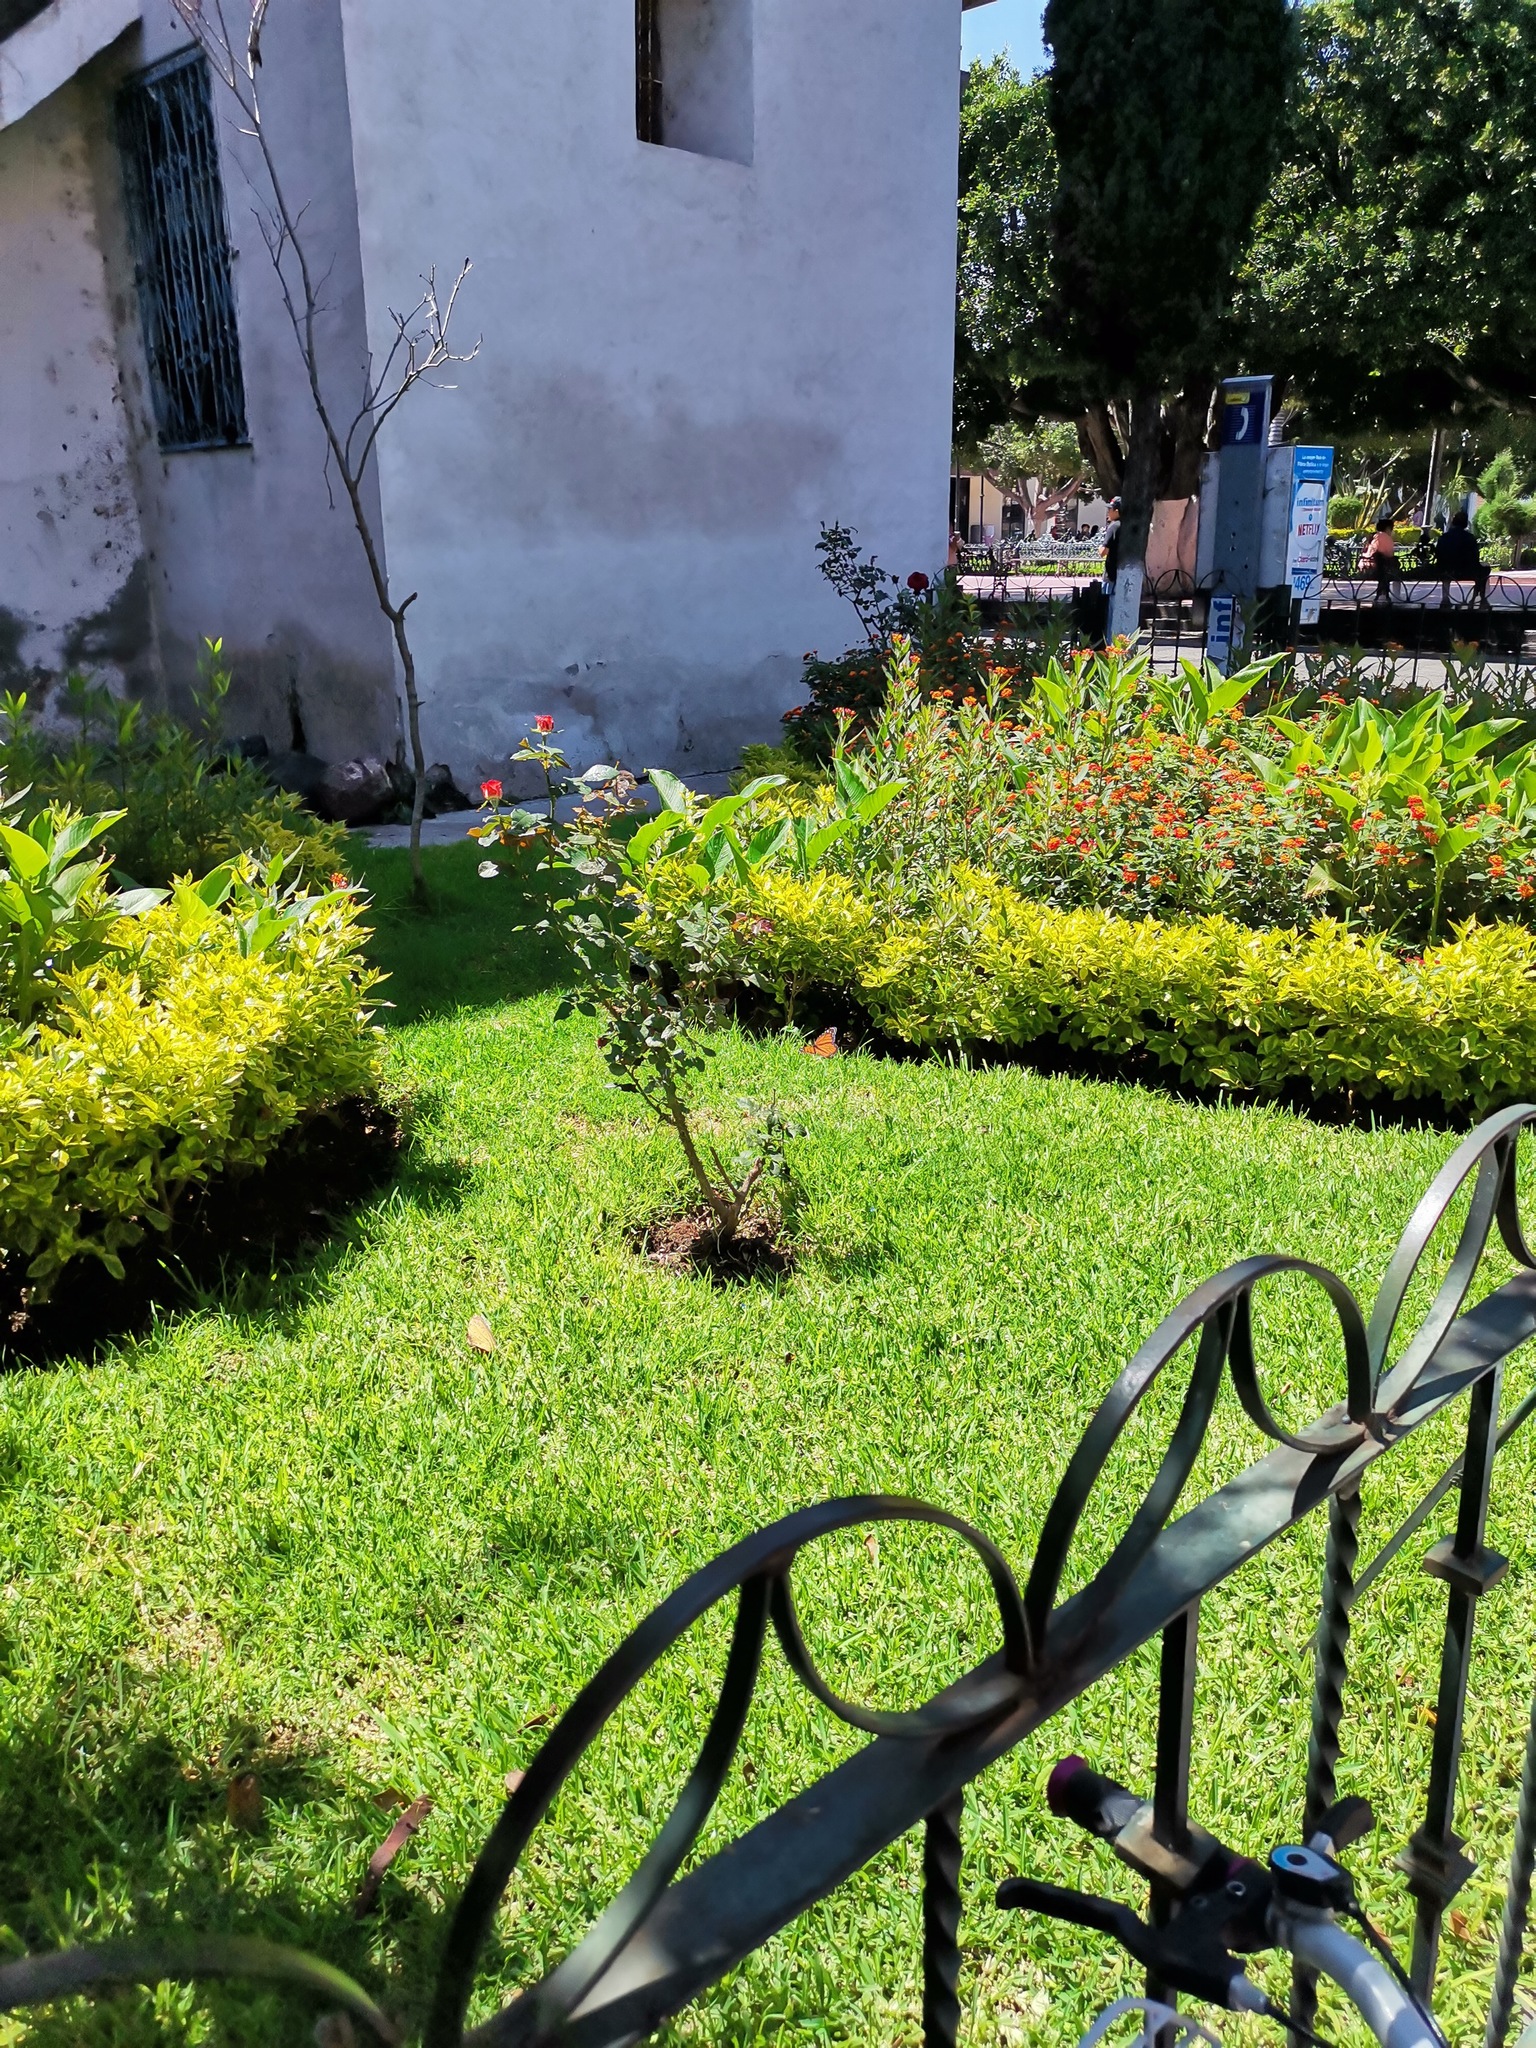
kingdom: Animalia
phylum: Arthropoda
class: Insecta
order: Lepidoptera
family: Nymphalidae
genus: Danaus
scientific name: Danaus plexippus
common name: Monarch
